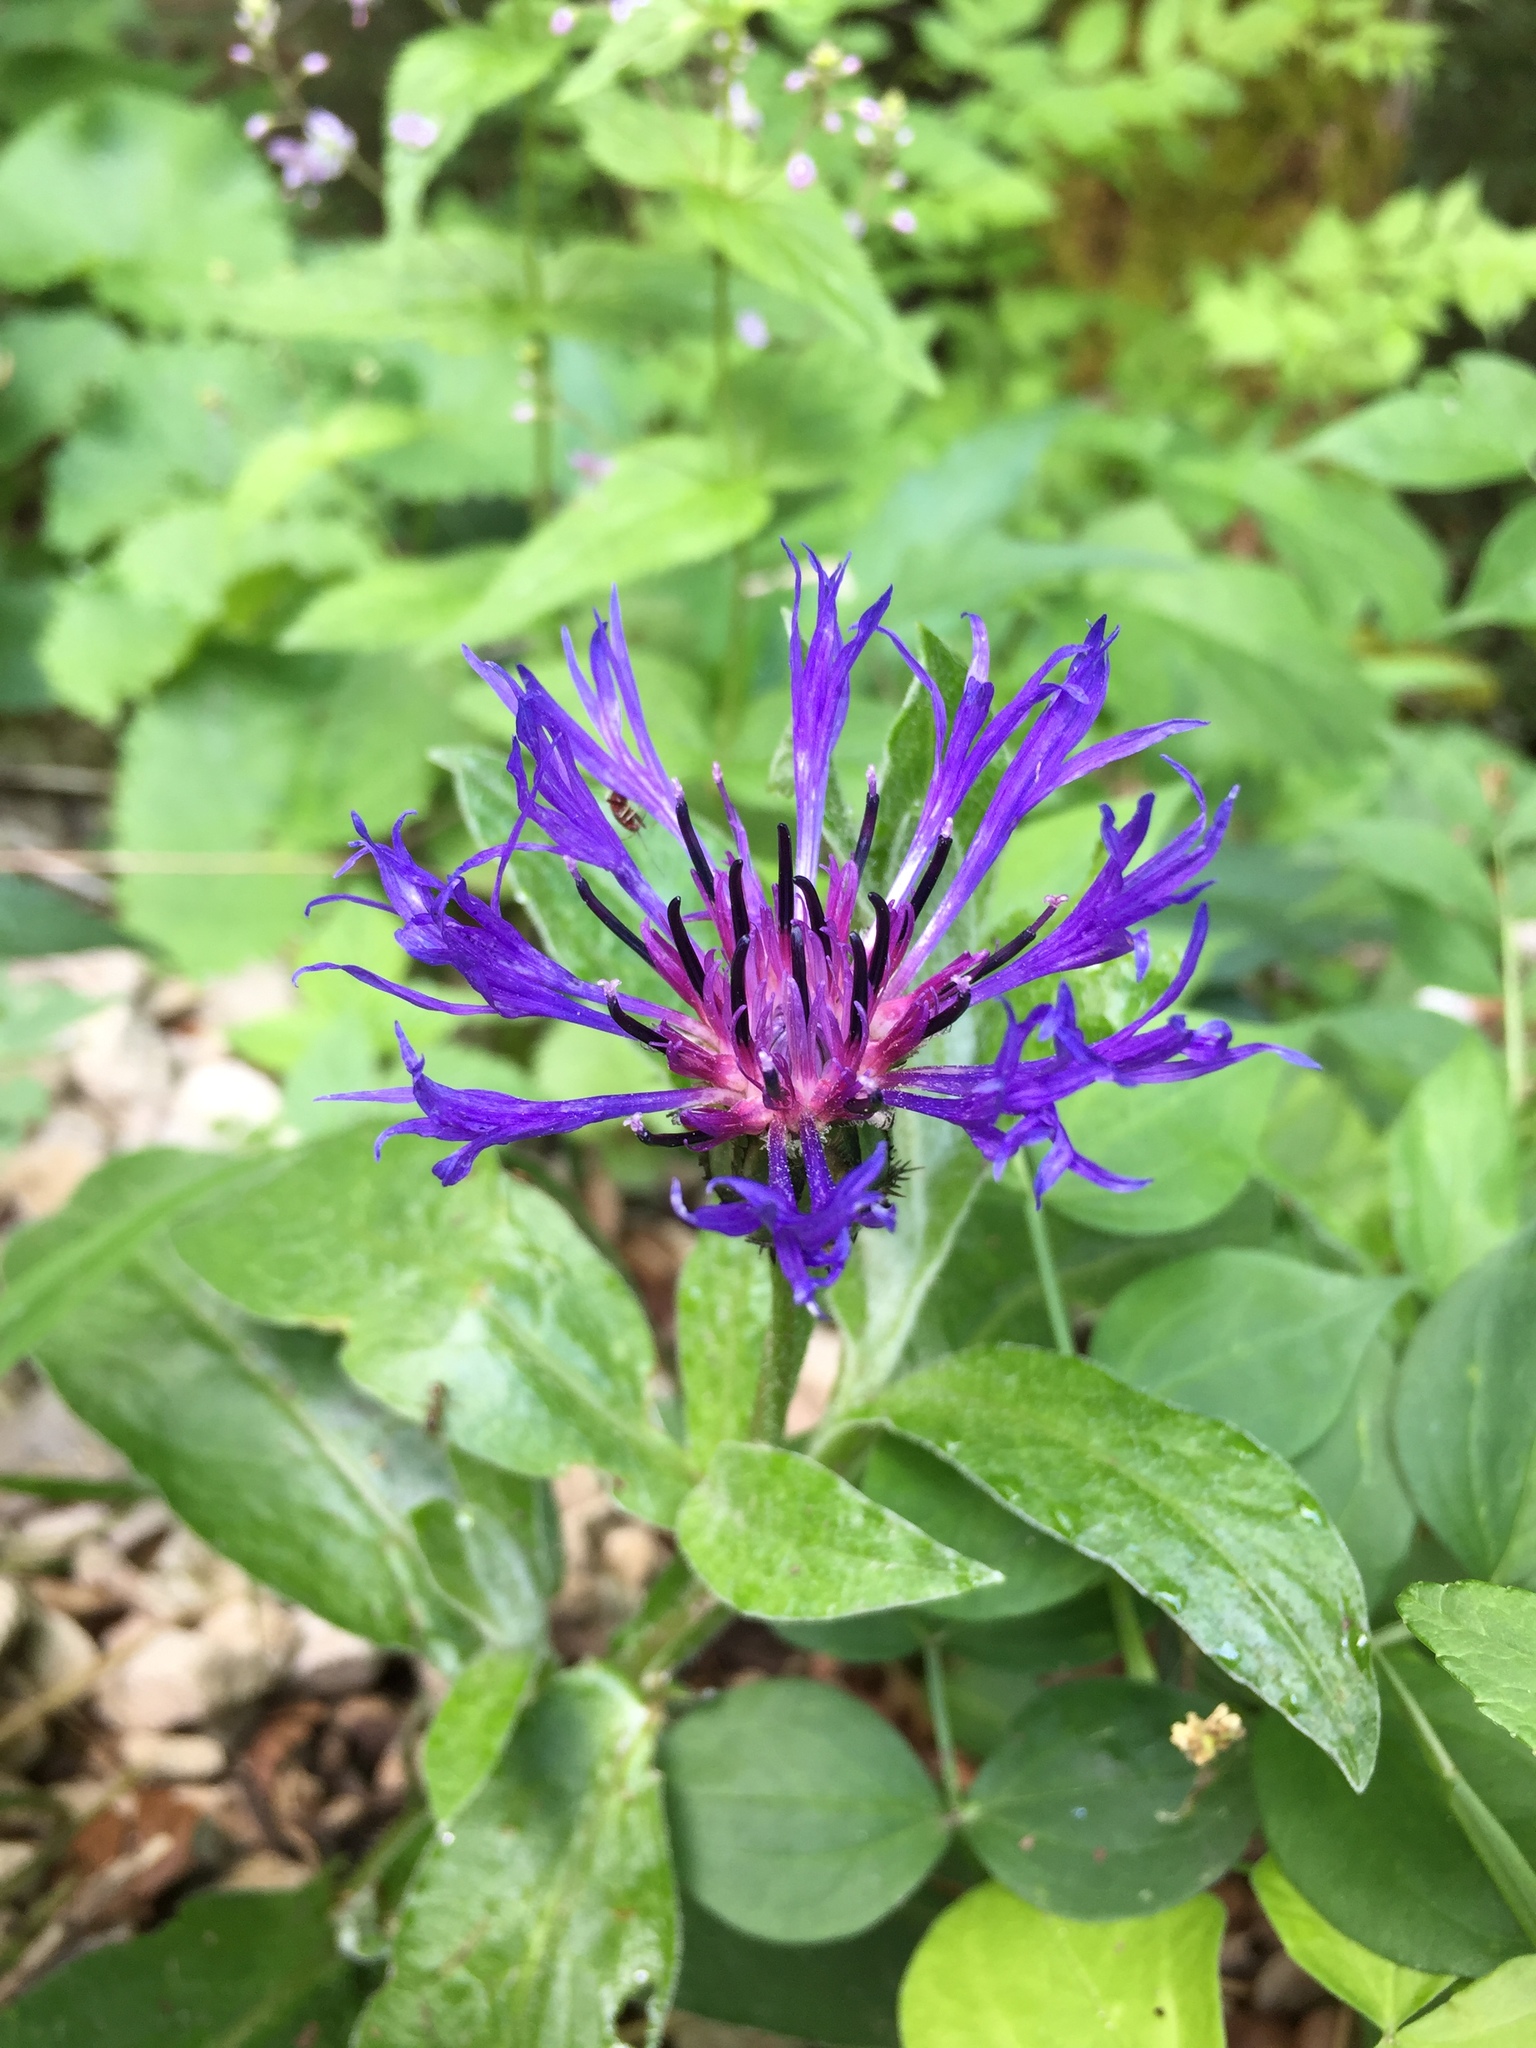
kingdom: Plantae
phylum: Tracheophyta
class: Magnoliopsida
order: Asterales
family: Asteraceae
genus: Centaurea
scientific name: Centaurea montana
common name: Perennial cornflower
